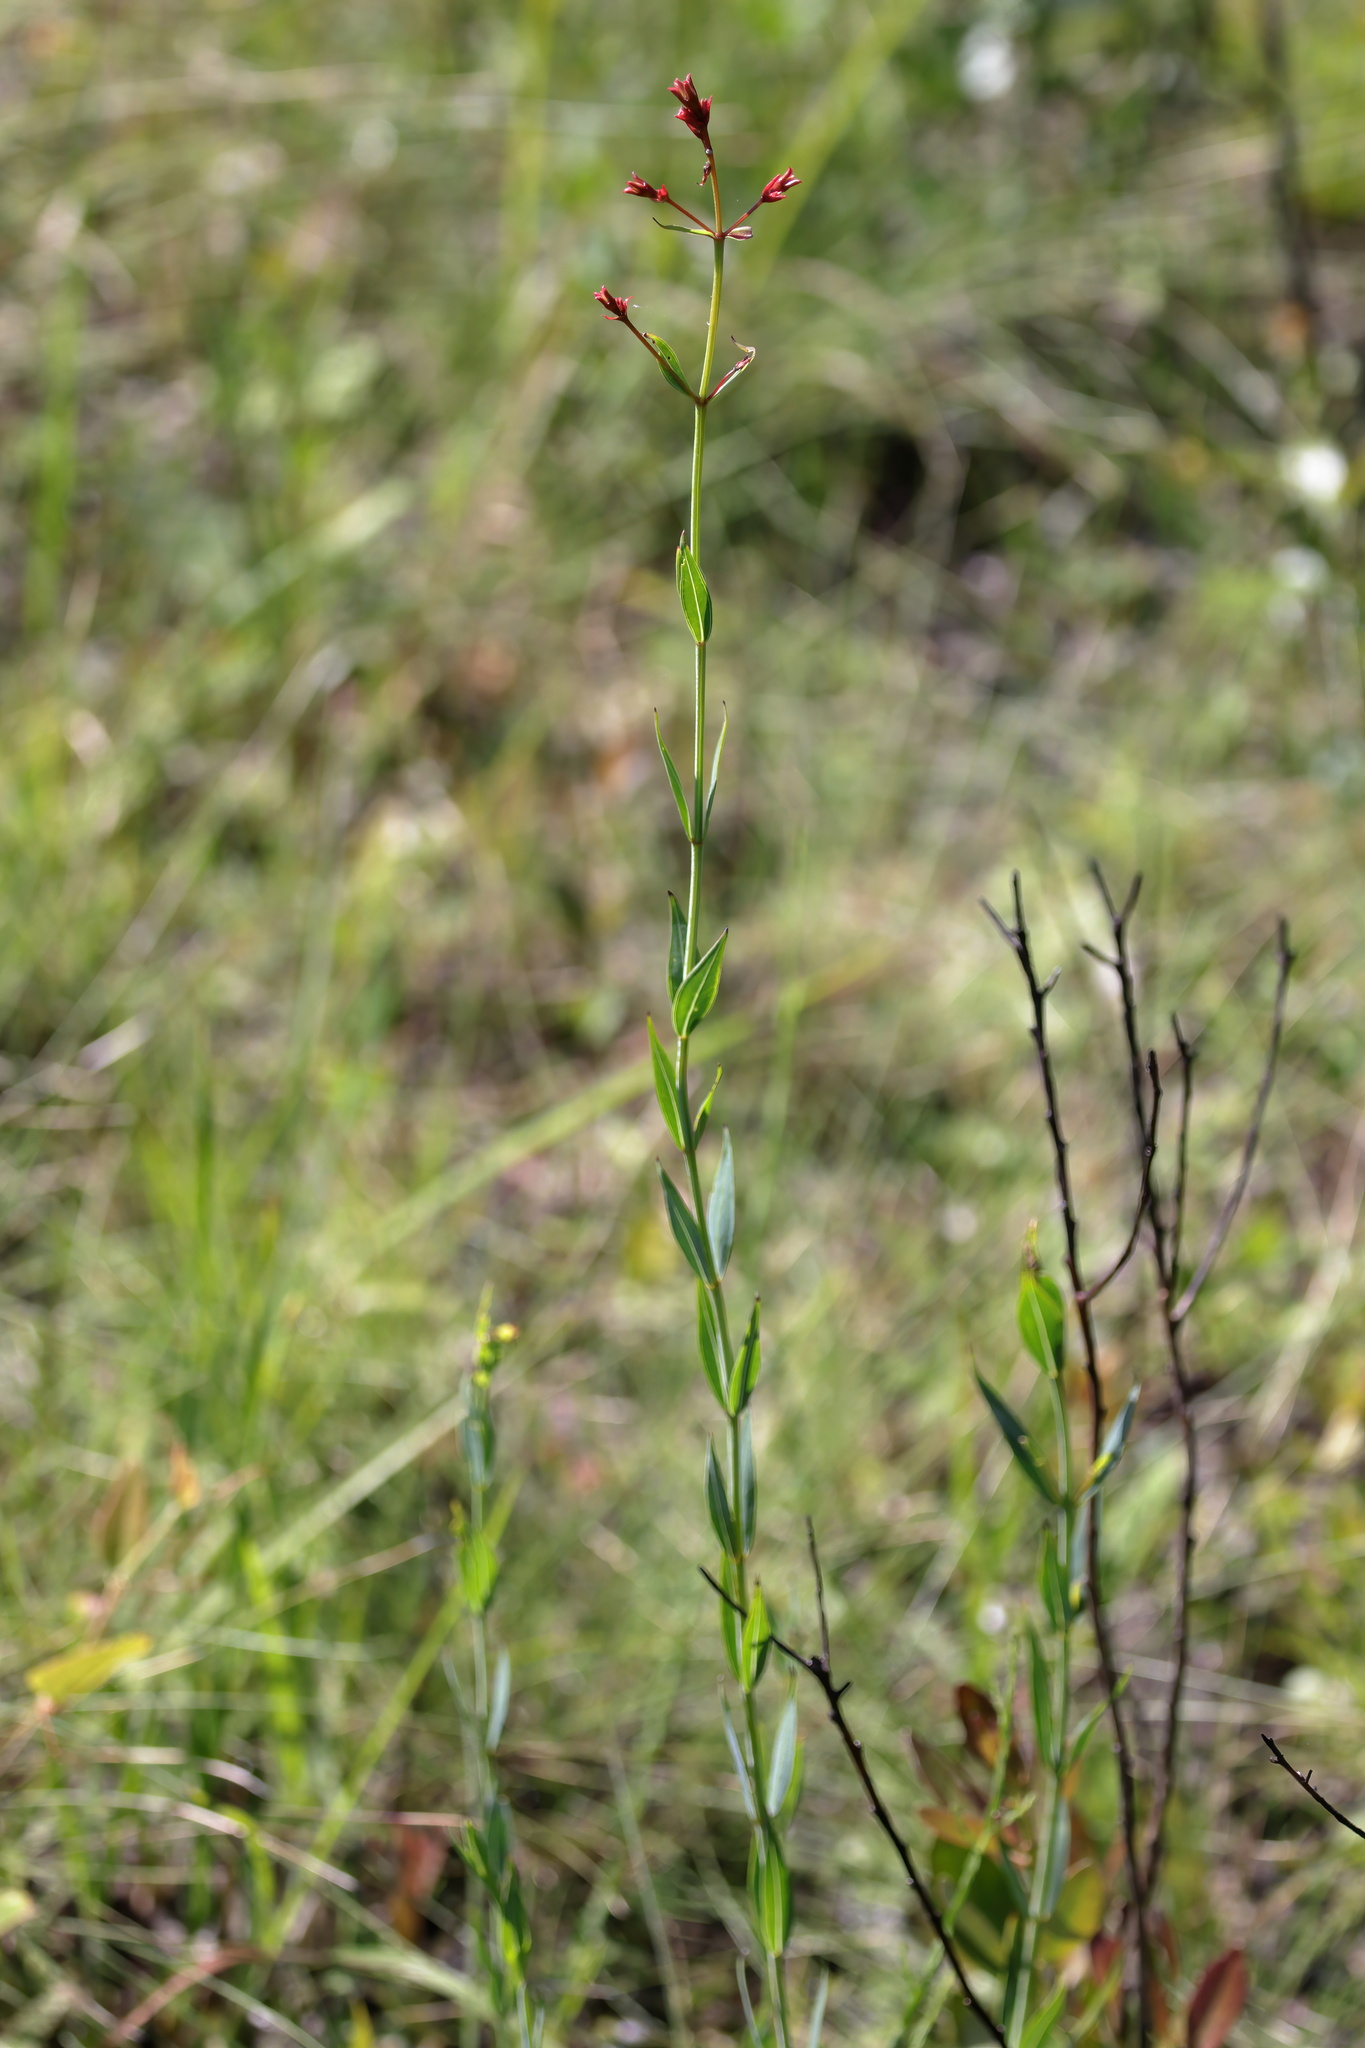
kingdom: Plantae
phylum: Tracheophyta
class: Magnoliopsida
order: Myrtales
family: Melastomataceae
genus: Rhexia
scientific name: Rhexia alifanus
